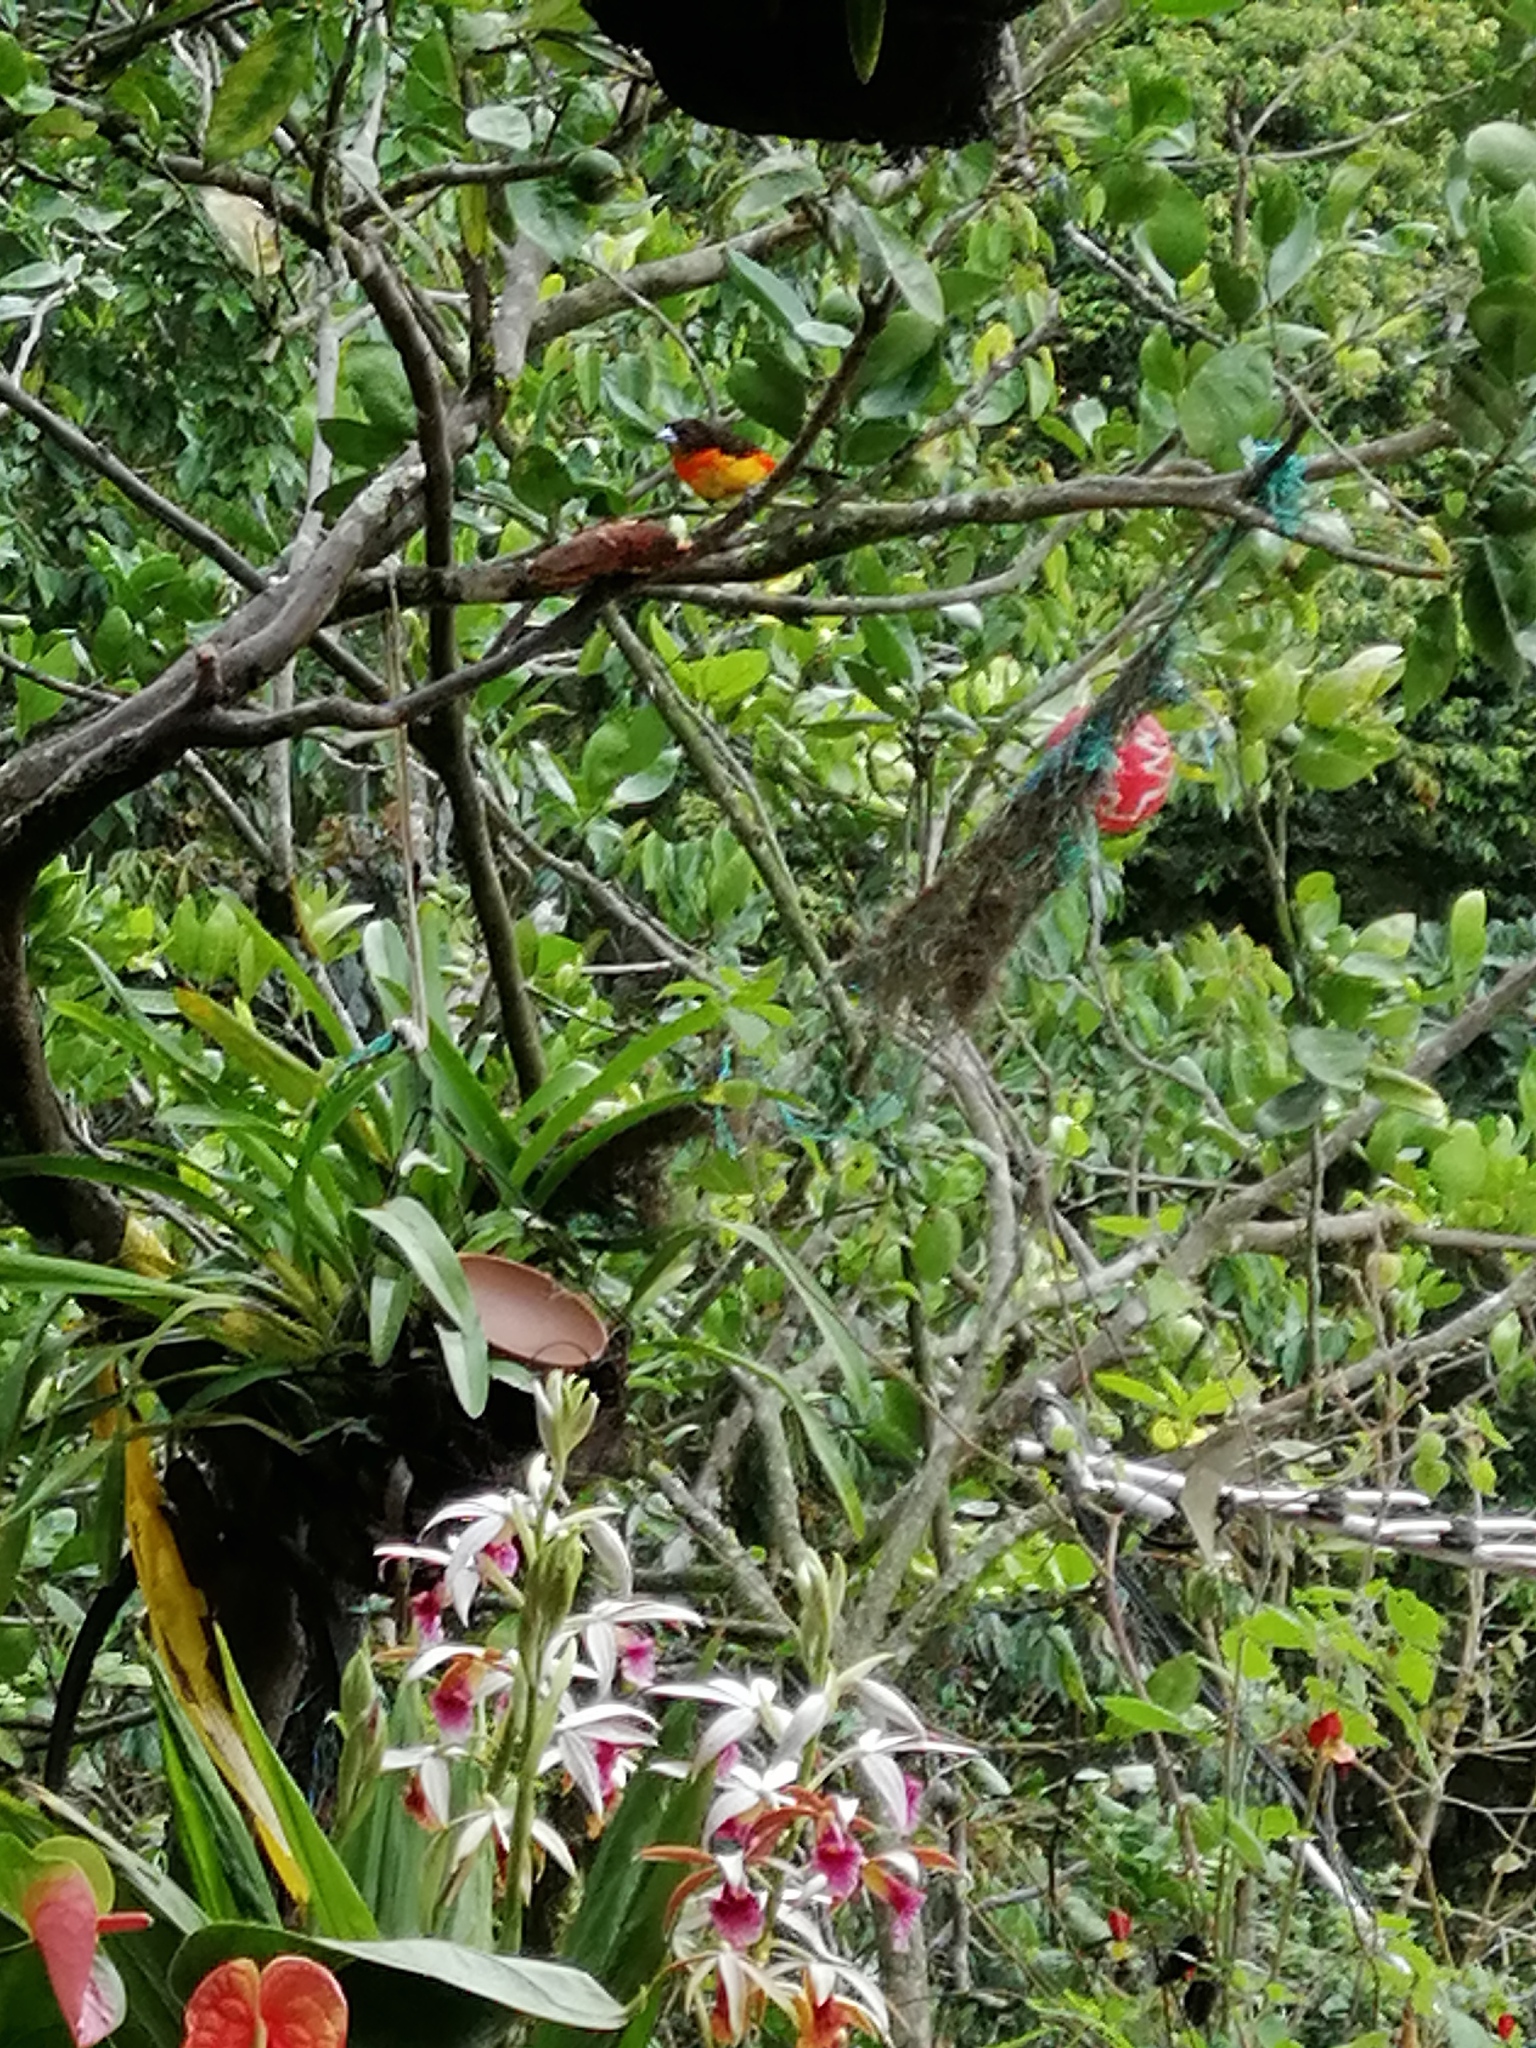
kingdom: Animalia
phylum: Chordata
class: Aves
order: Passeriformes
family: Thraupidae
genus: Ramphocelus
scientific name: Ramphocelus flammigerus
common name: Flame-rumped tanager
